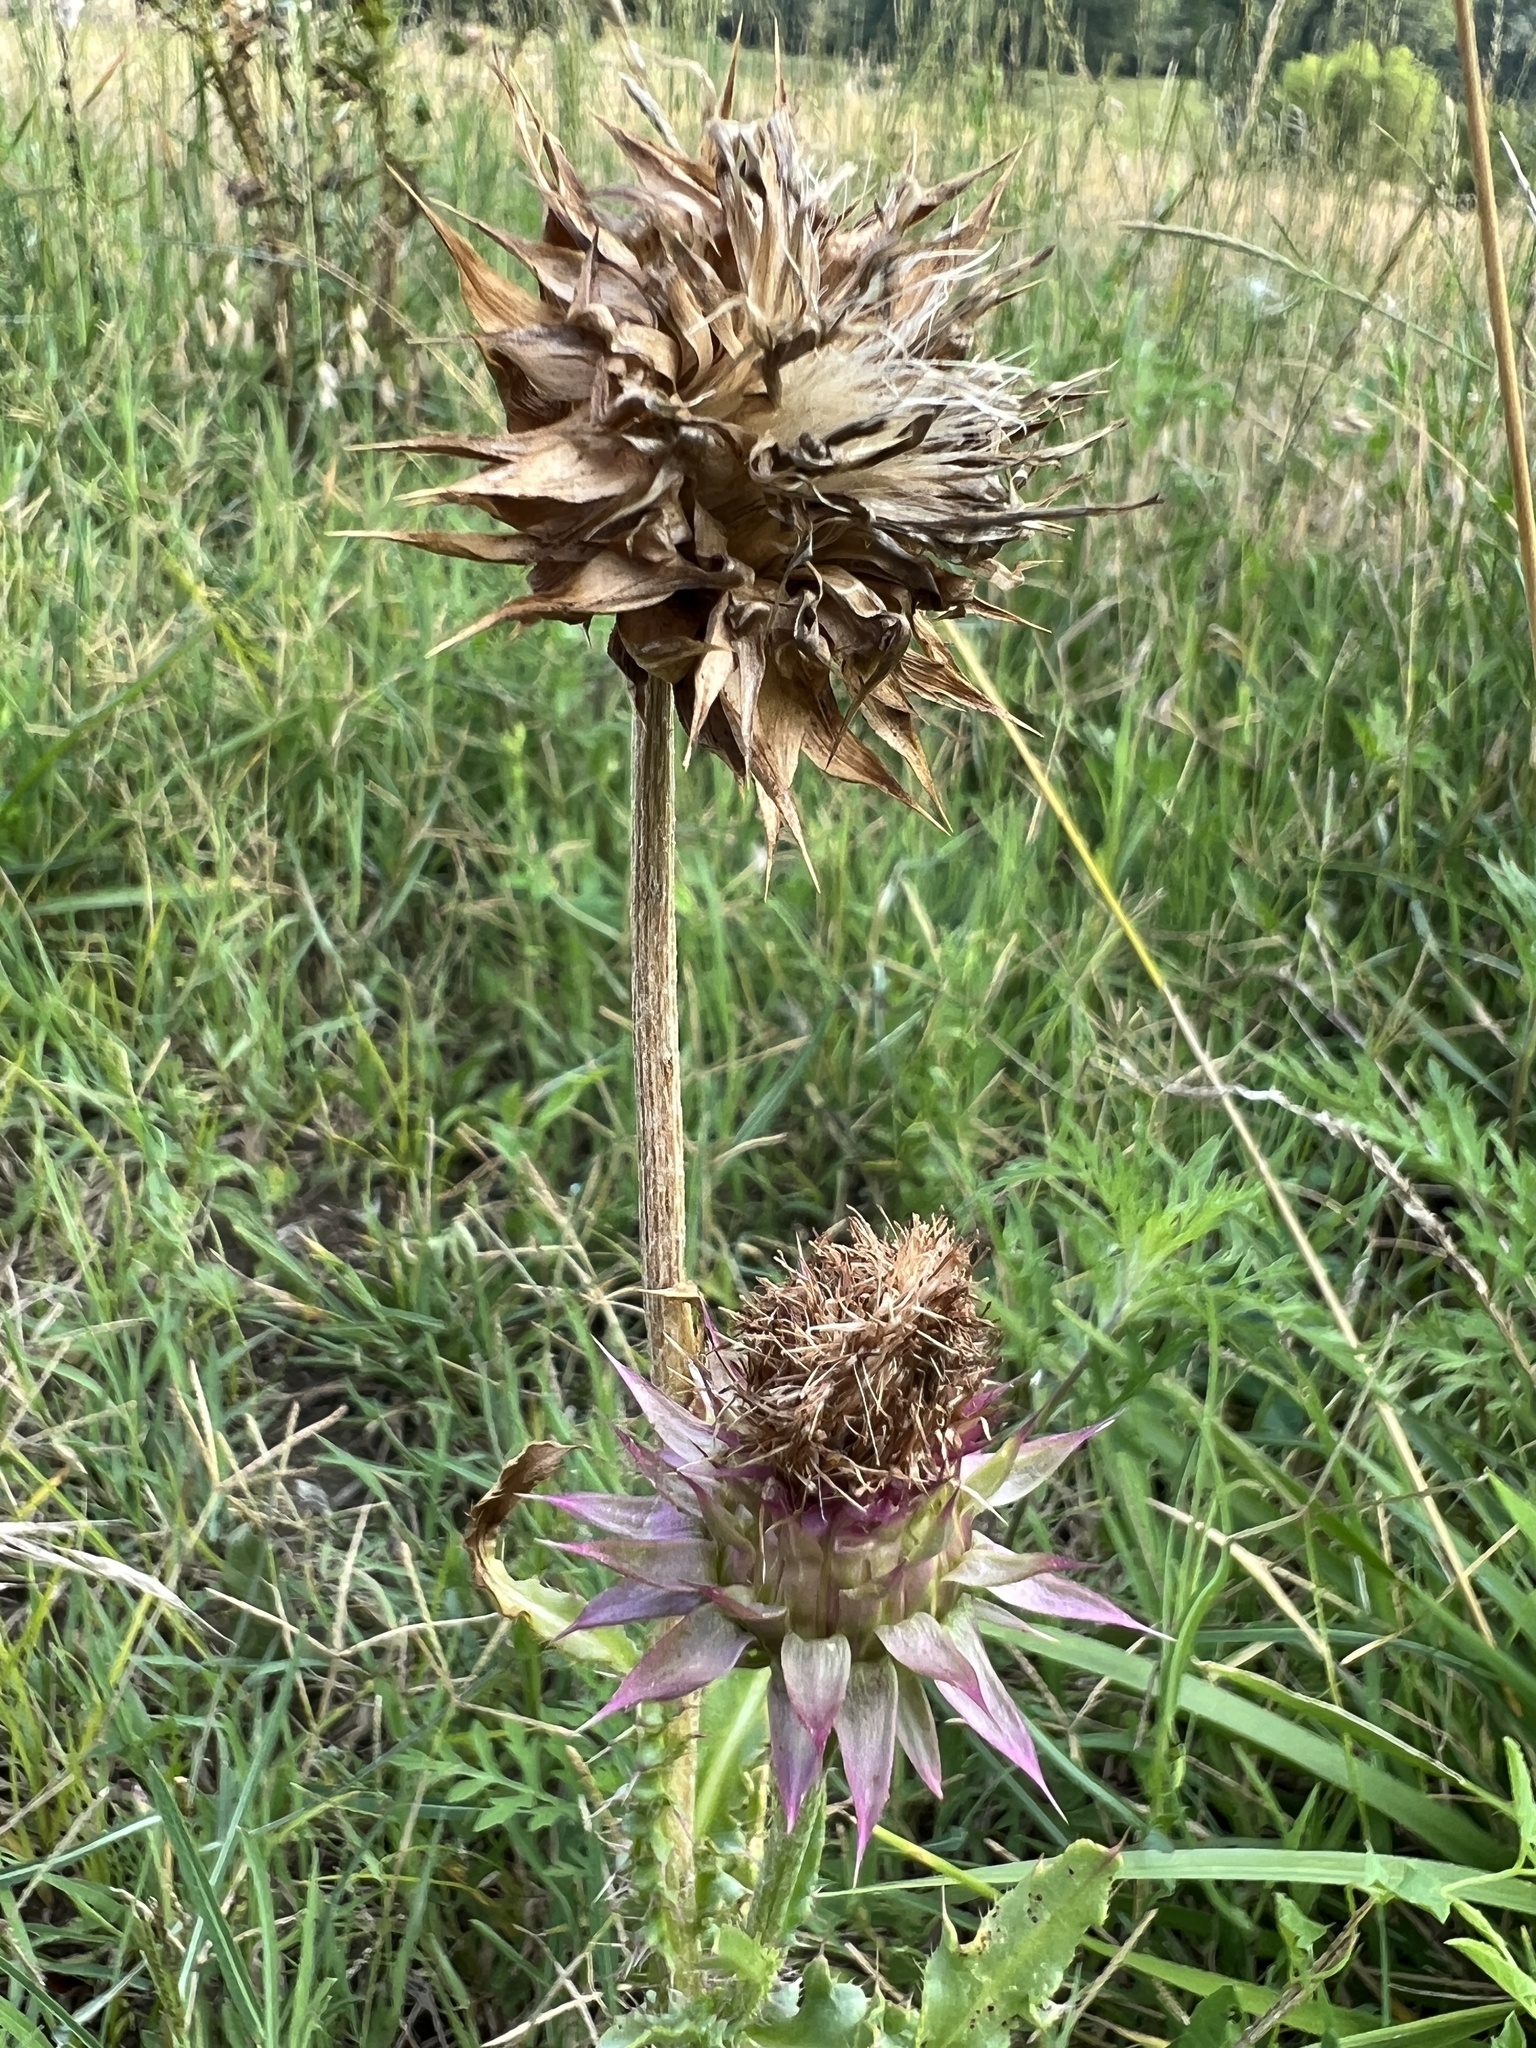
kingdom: Plantae
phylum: Tracheophyta
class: Magnoliopsida
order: Asterales
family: Asteraceae
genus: Carduus
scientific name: Carduus nutans
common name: Musk thistle
